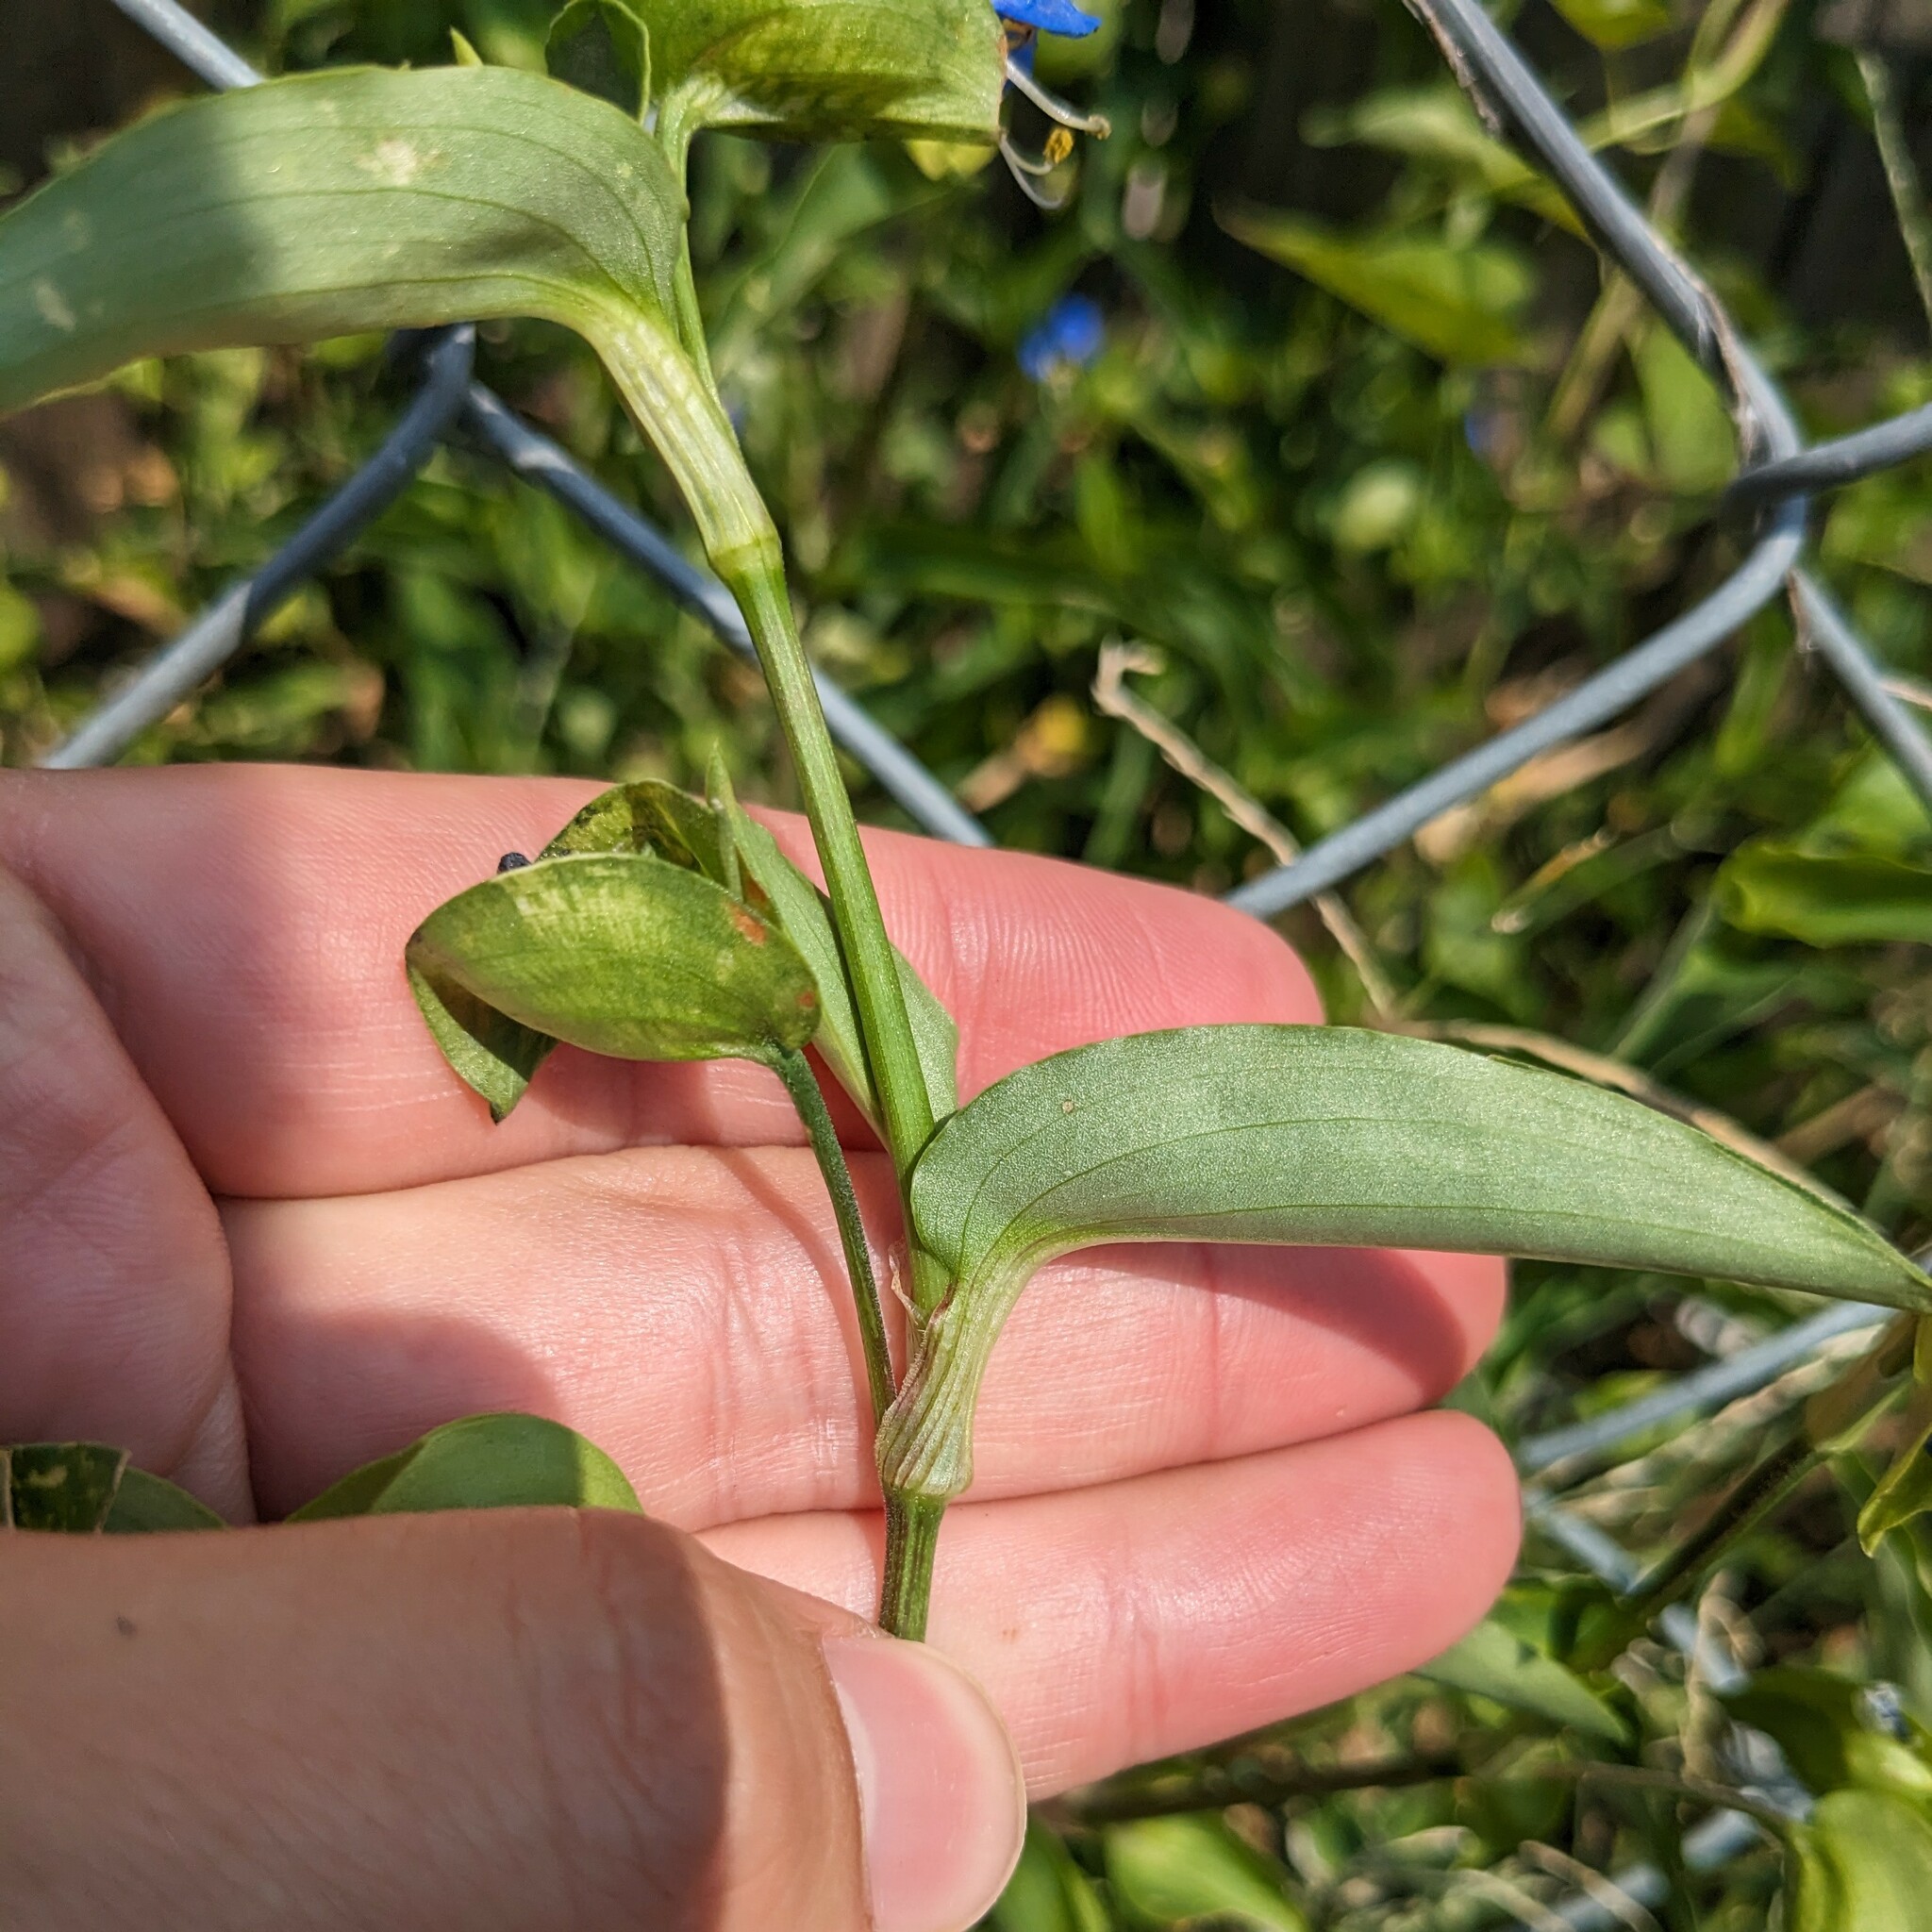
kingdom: Plantae
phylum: Tracheophyta
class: Liliopsida
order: Commelinales
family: Commelinaceae
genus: Commelina
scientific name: Commelina communis
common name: Asiatic dayflower
